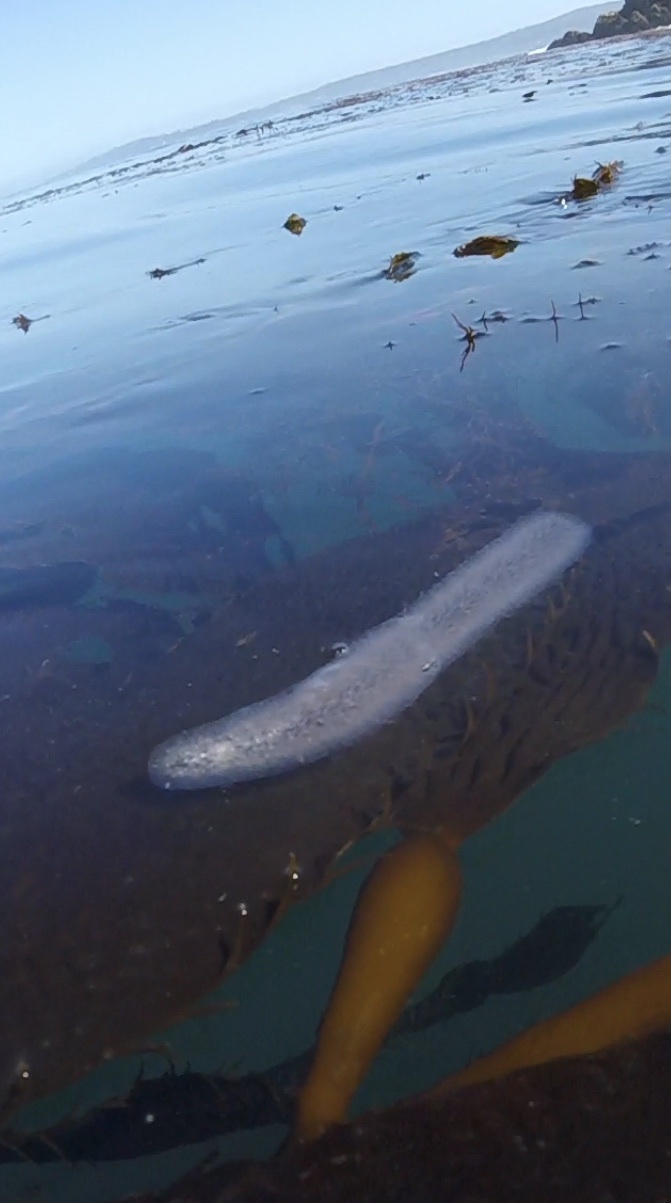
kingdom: Animalia
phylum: Chordata
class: Thaliacea
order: Pyrosomatida
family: Pyrosomatidae
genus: Pyrosoma
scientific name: Pyrosoma atlanticum
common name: Atlantic pyrosomes
